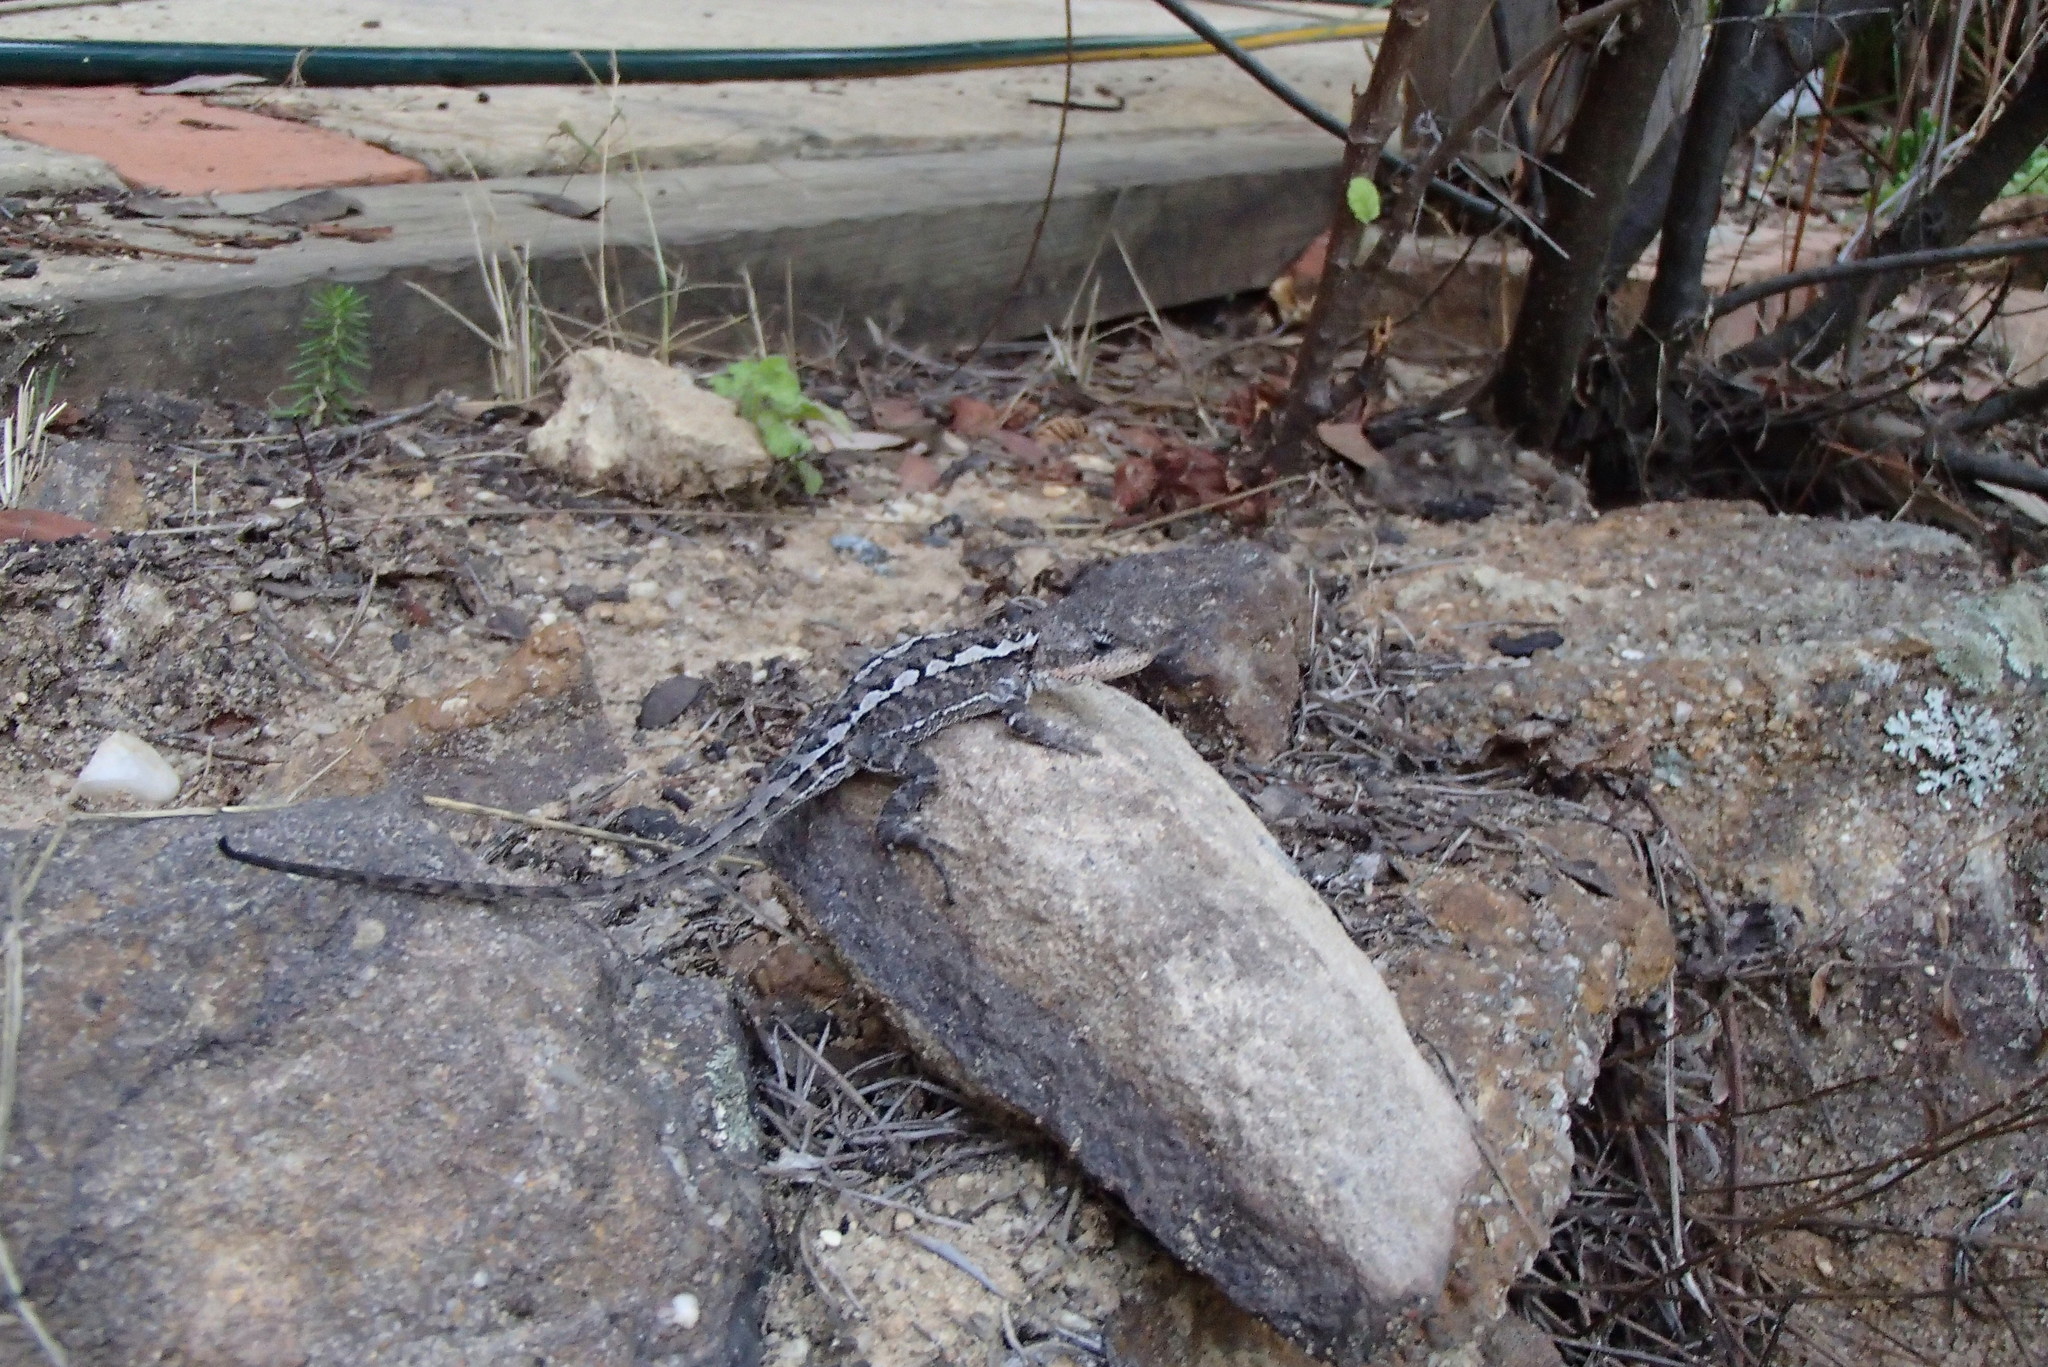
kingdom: Animalia
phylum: Chordata
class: Squamata
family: Agamidae
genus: Rankinia
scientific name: Rankinia diemensis
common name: Mountain dragon
